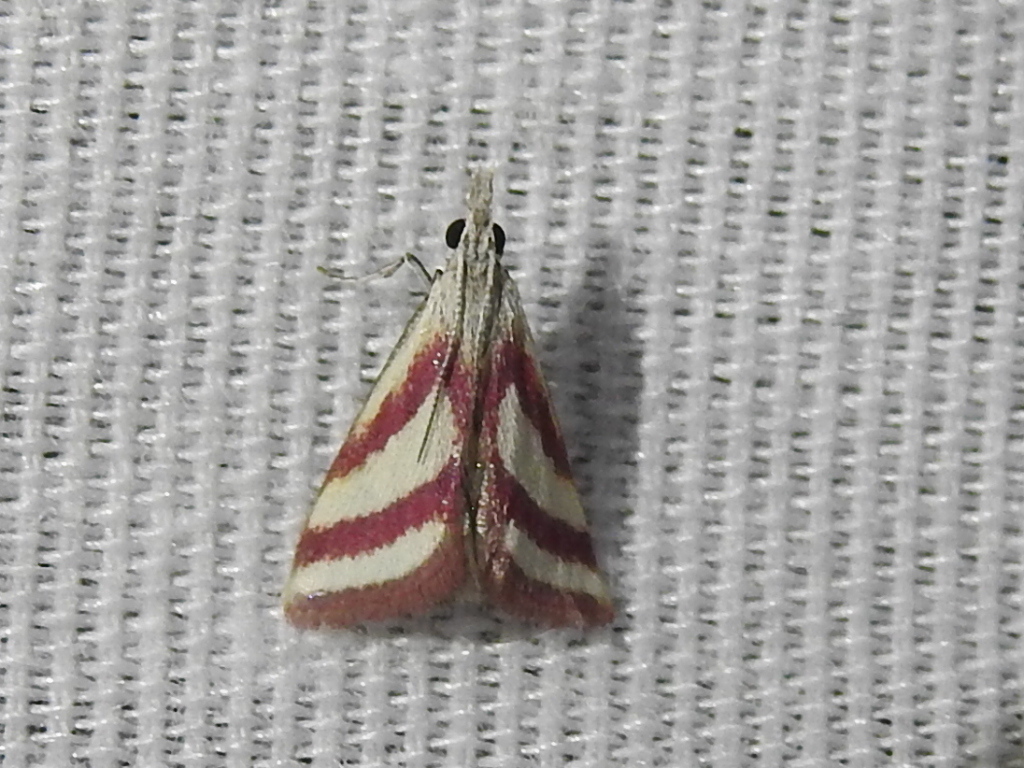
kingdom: Animalia
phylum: Arthropoda
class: Insecta
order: Lepidoptera
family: Crambidae
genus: Microtheoris
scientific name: Microtheoris vibicalis
